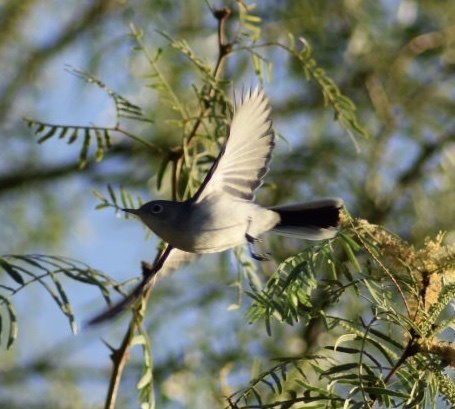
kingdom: Animalia
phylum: Chordata
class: Aves
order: Passeriformes
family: Polioptilidae
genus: Polioptila
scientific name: Polioptila caerulea
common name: Blue-gray gnatcatcher
